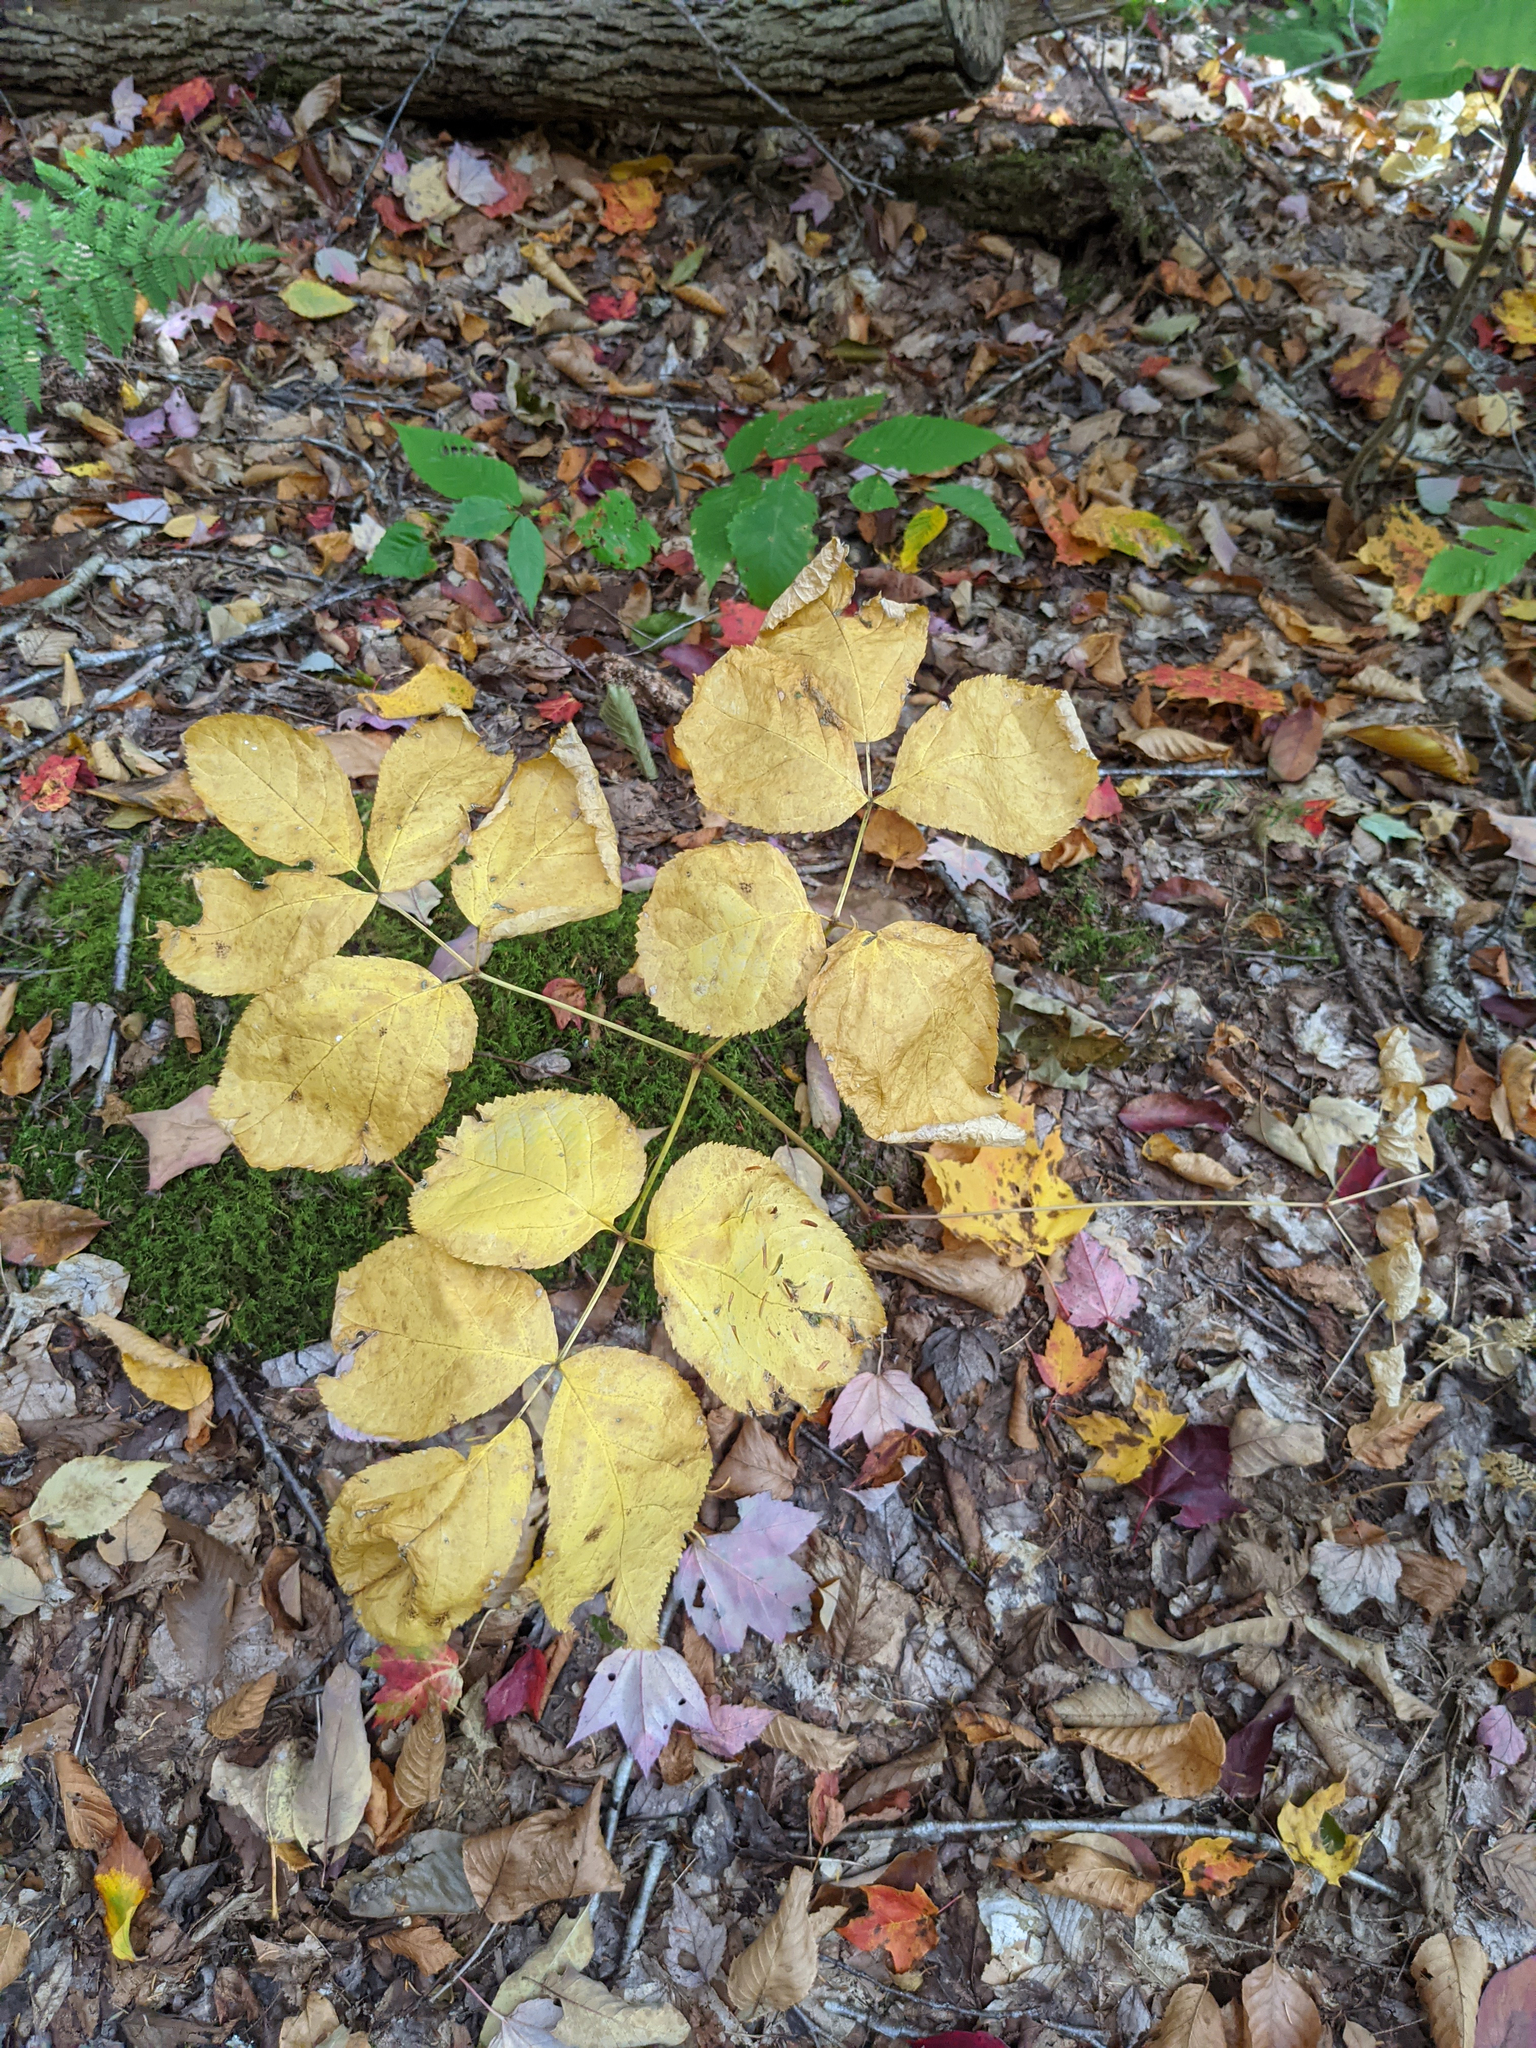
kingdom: Plantae
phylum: Tracheophyta
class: Magnoliopsida
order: Apiales
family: Araliaceae
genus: Aralia
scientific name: Aralia nudicaulis
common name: Wild sarsaparilla
